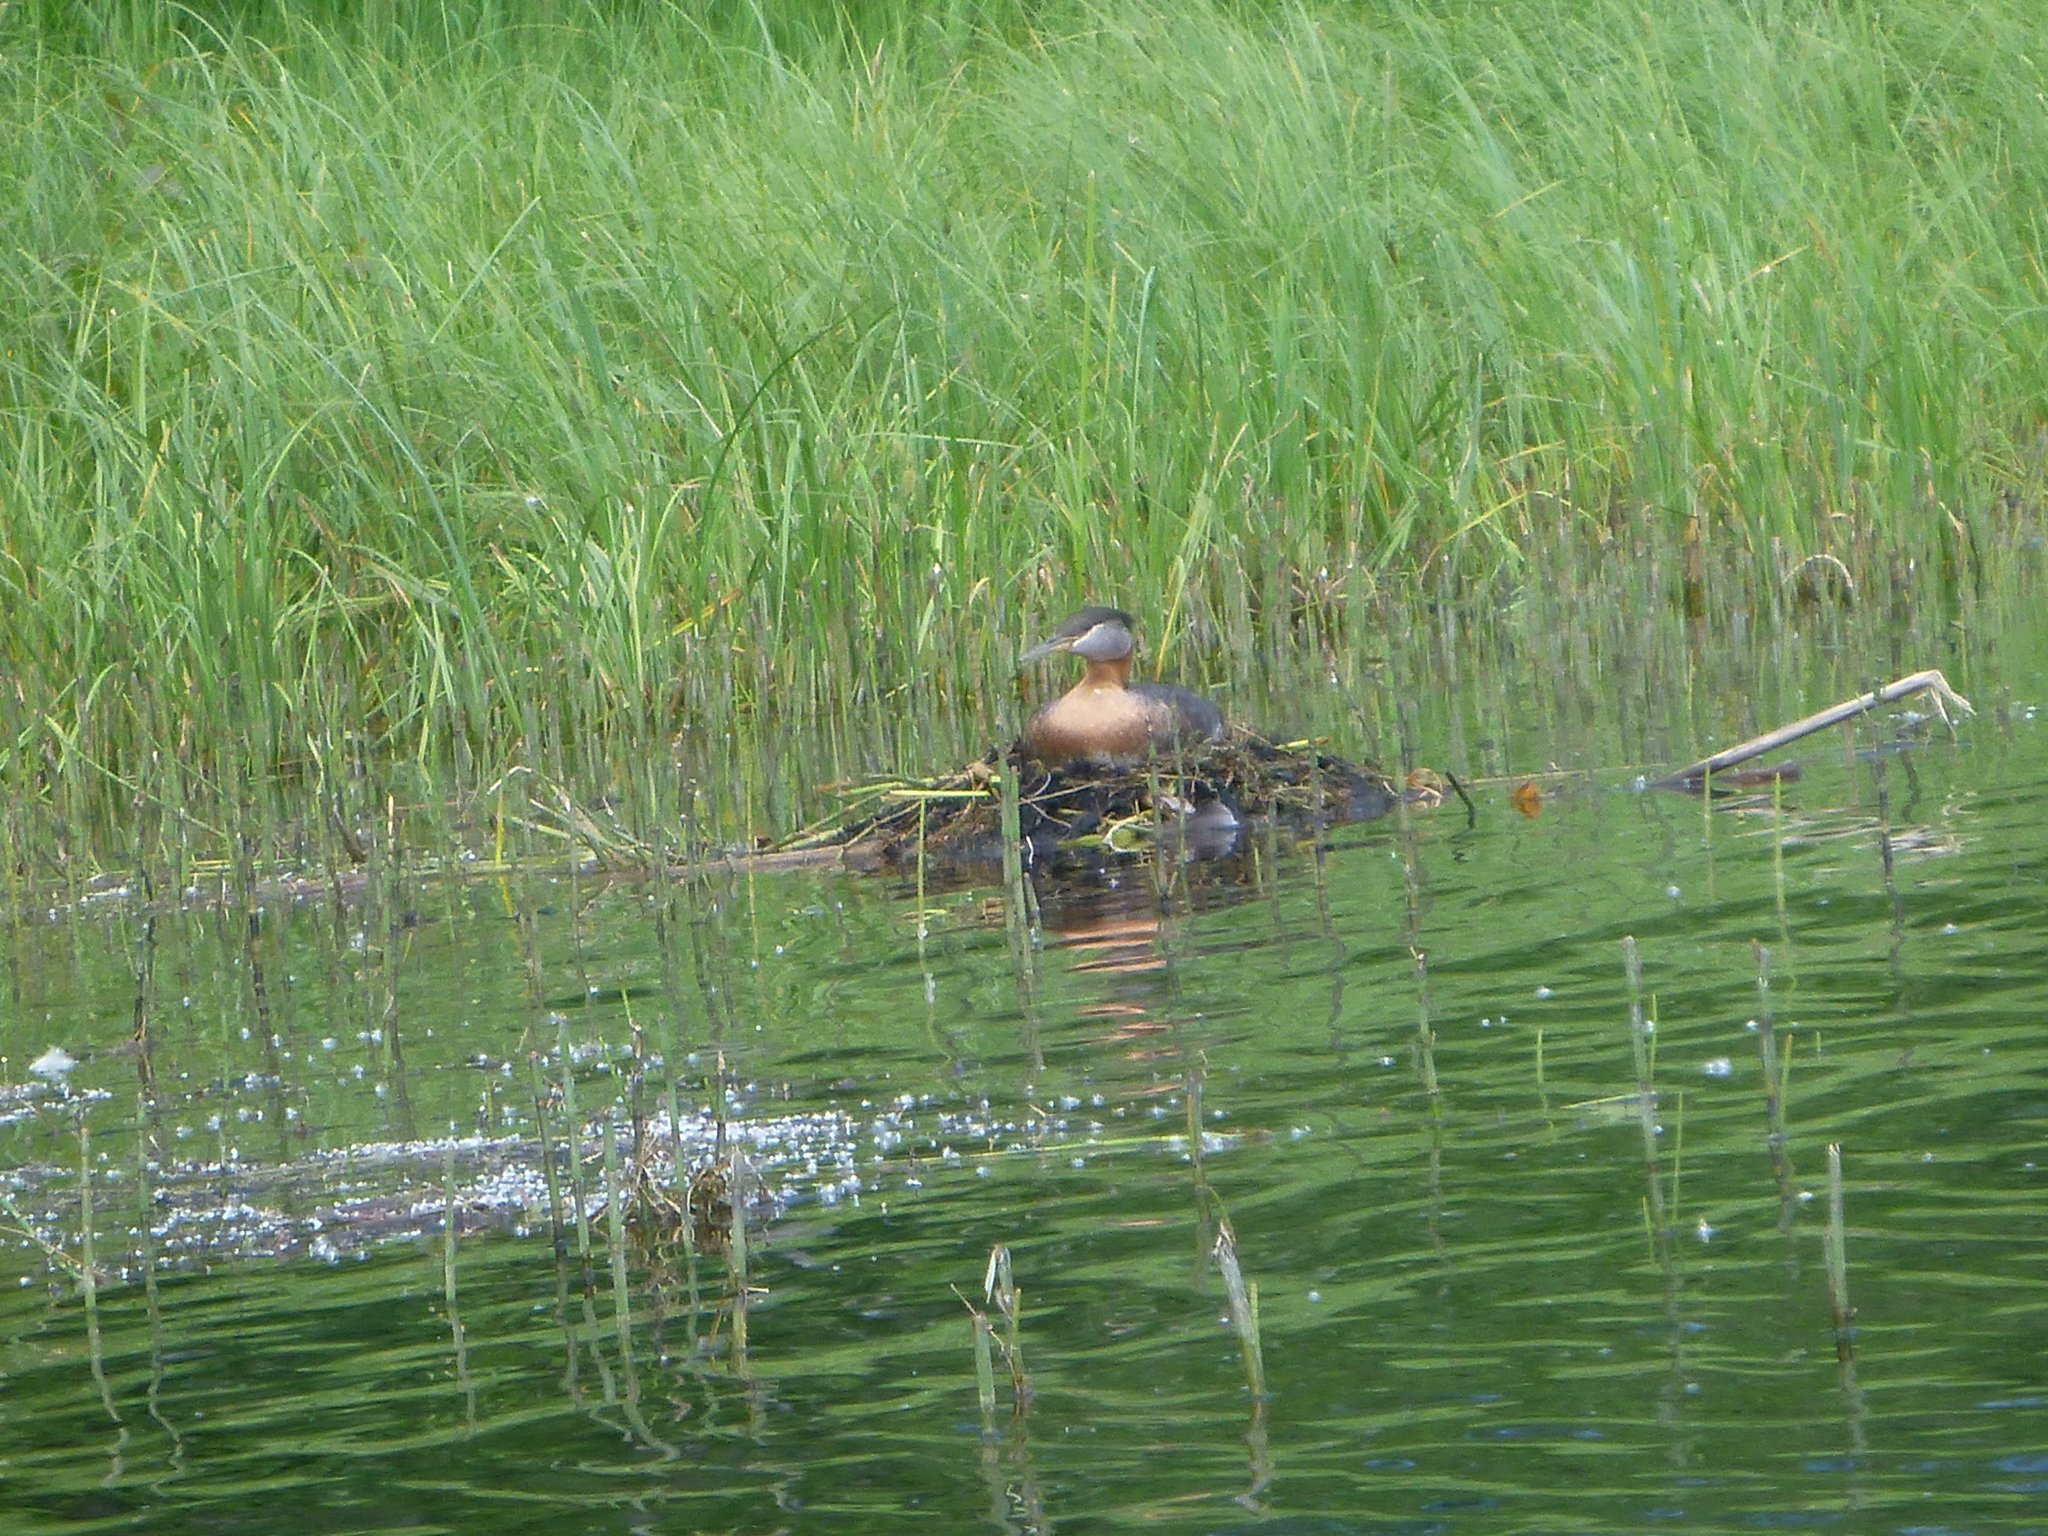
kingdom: Animalia
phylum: Chordata
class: Aves
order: Podicipediformes
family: Podicipedidae
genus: Podiceps
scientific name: Podiceps grisegena
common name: Red-necked grebe
